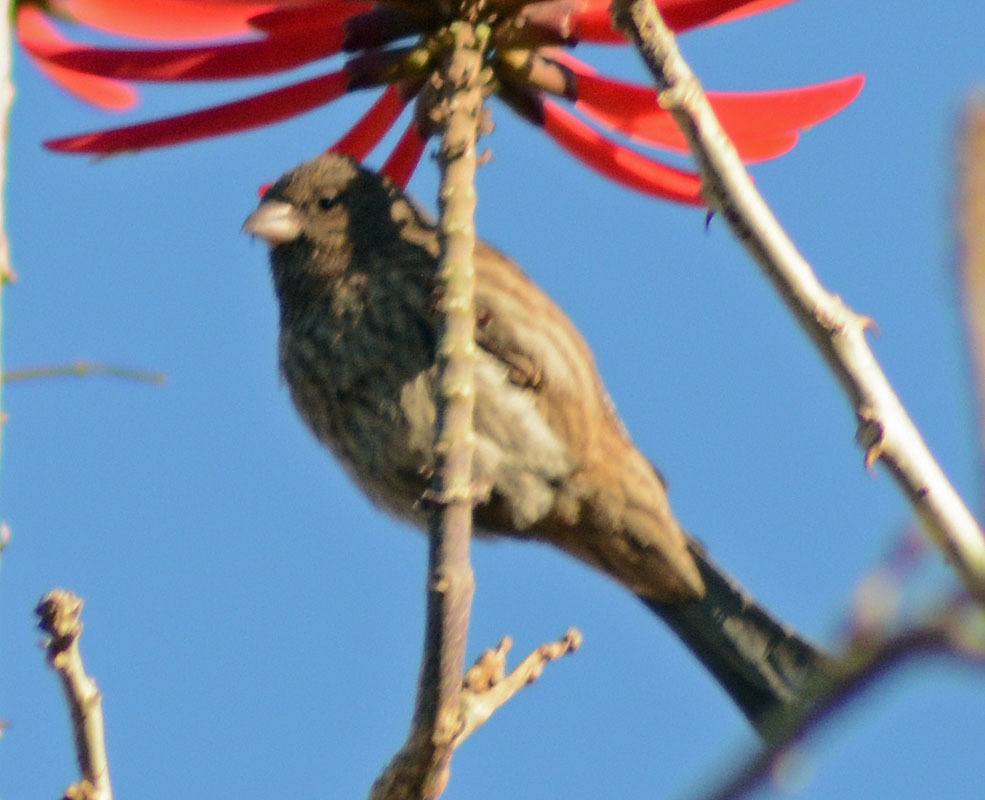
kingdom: Animalia
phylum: Chordata
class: Aves
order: Passeriformes
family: Fringillidae
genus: Haemorhous
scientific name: Haemorhous mexicanus
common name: House finch
